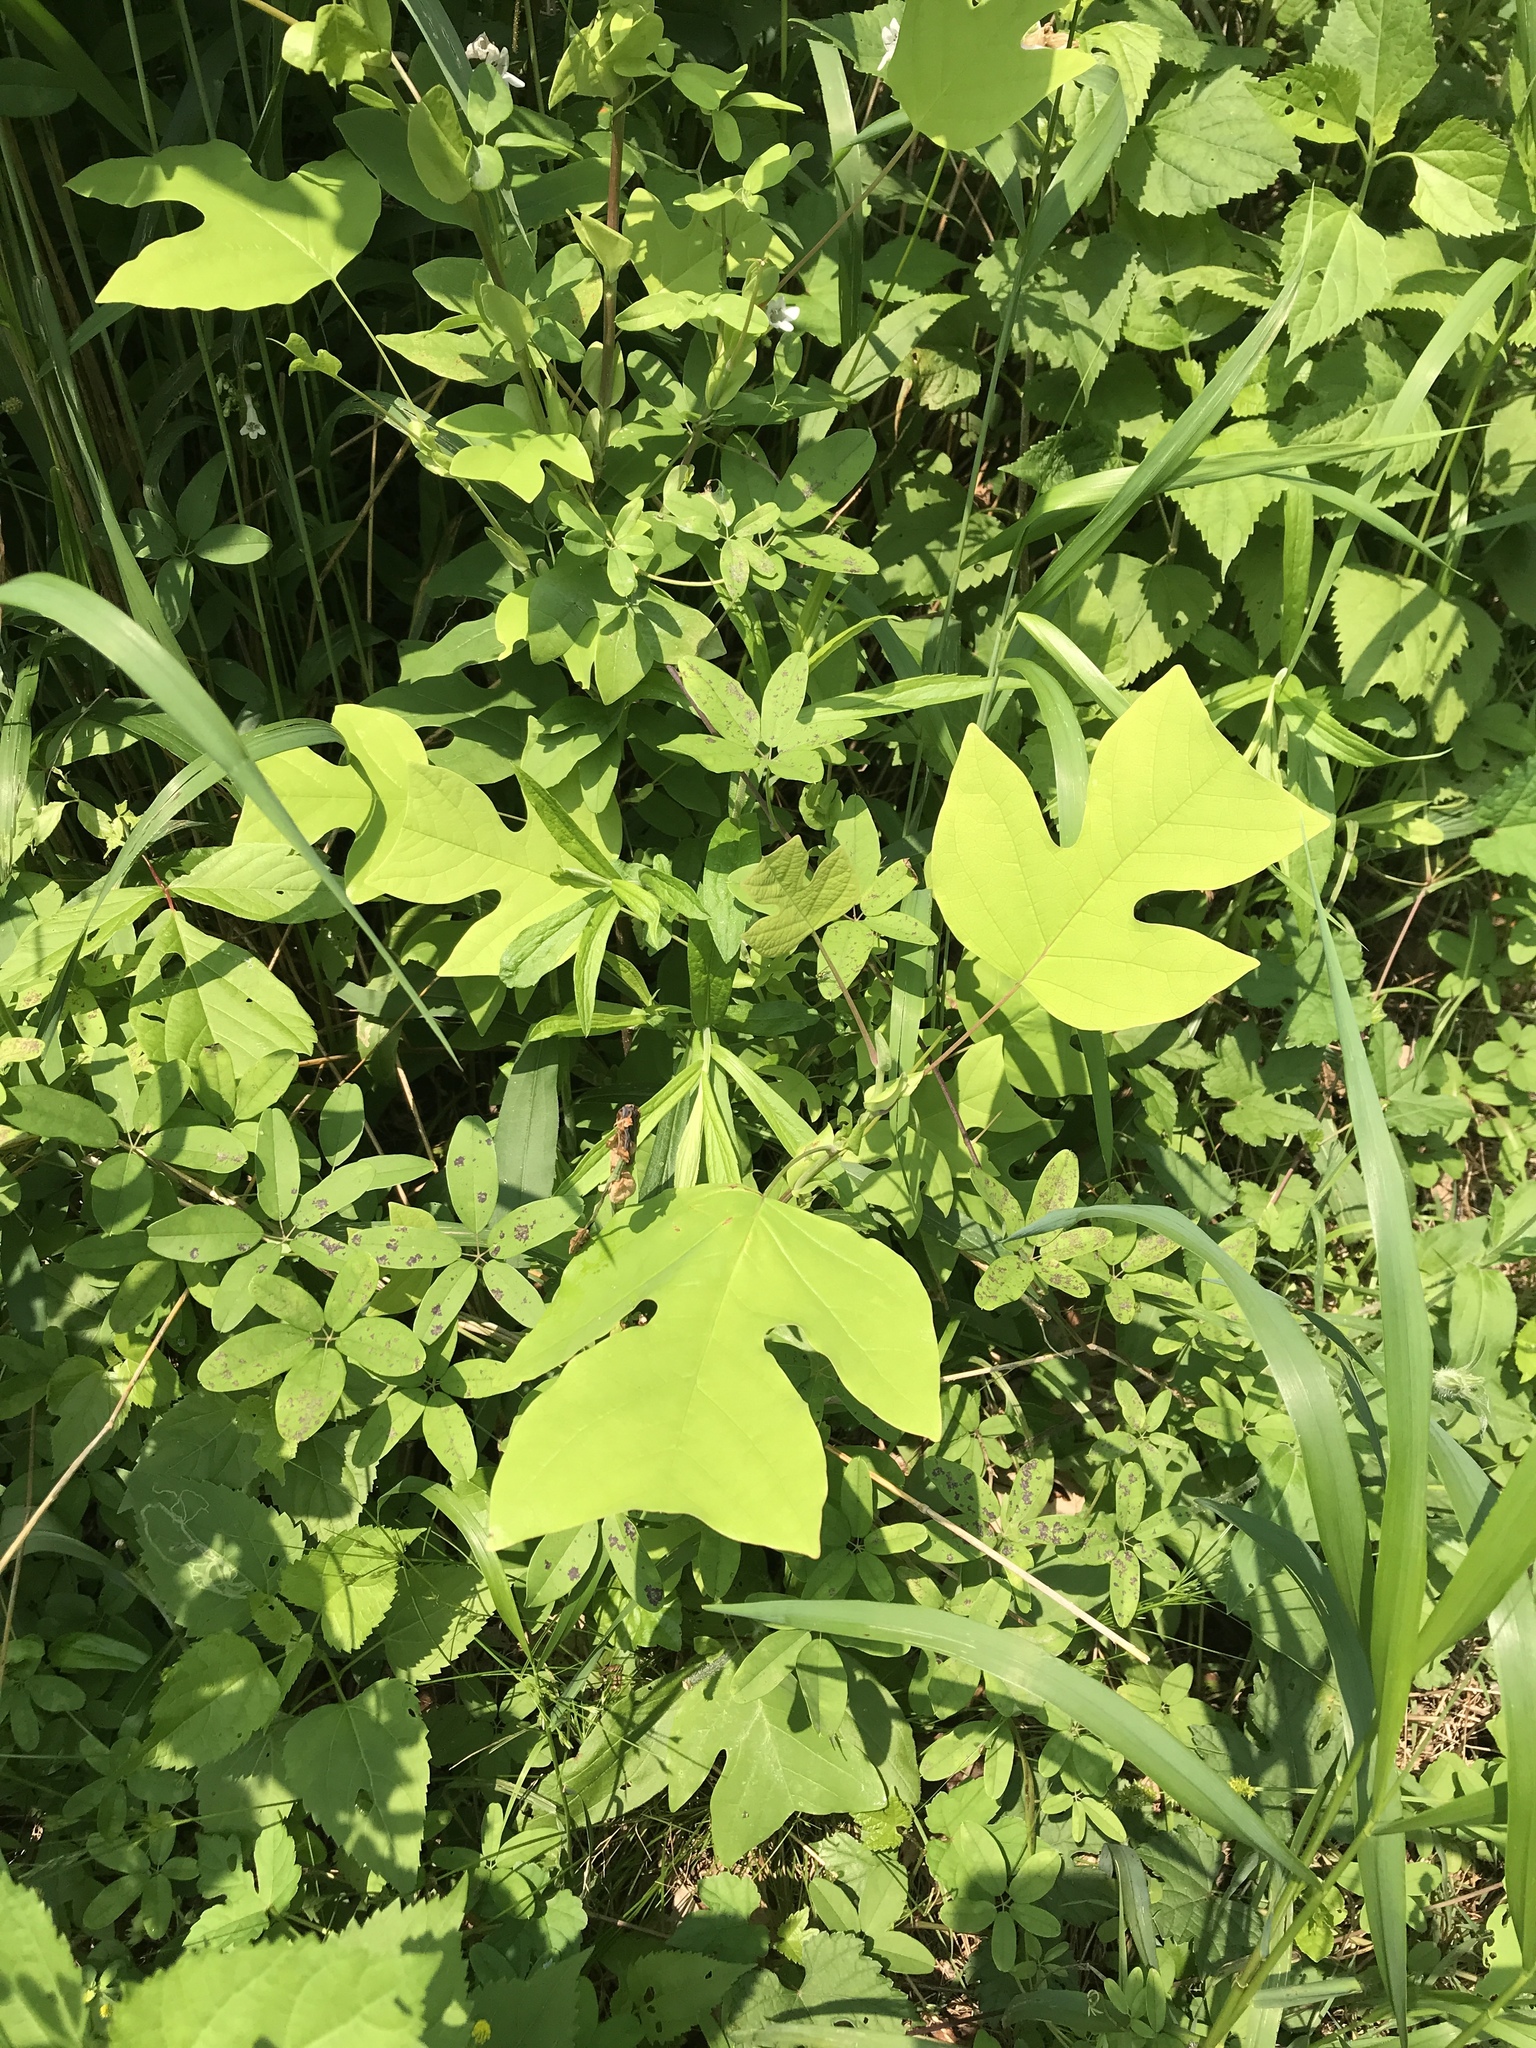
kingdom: Plantae
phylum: Tracheophyta
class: Magnoliopsida
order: Magnoliales
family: Magnoliaceae
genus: Liriodendron
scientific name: Liriodendron tulipifera
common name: Tulip tree
